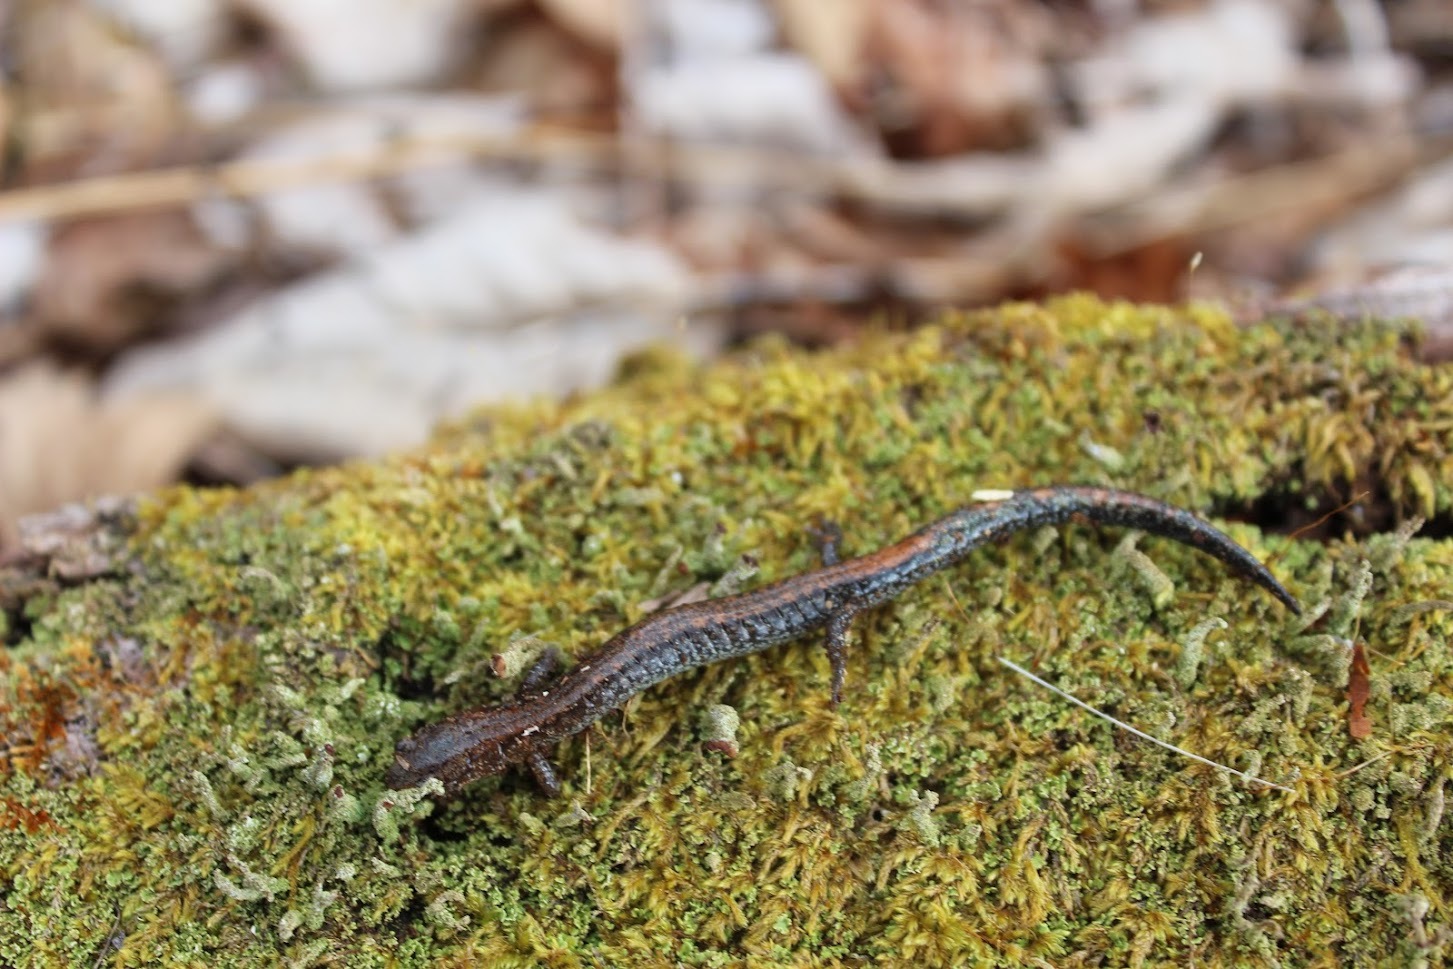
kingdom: Animalia
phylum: Chordata
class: Amphibia
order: Caudata
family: Plethodontidae
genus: Plethodon
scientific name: Plethodon cinereus
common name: Redback salamander
